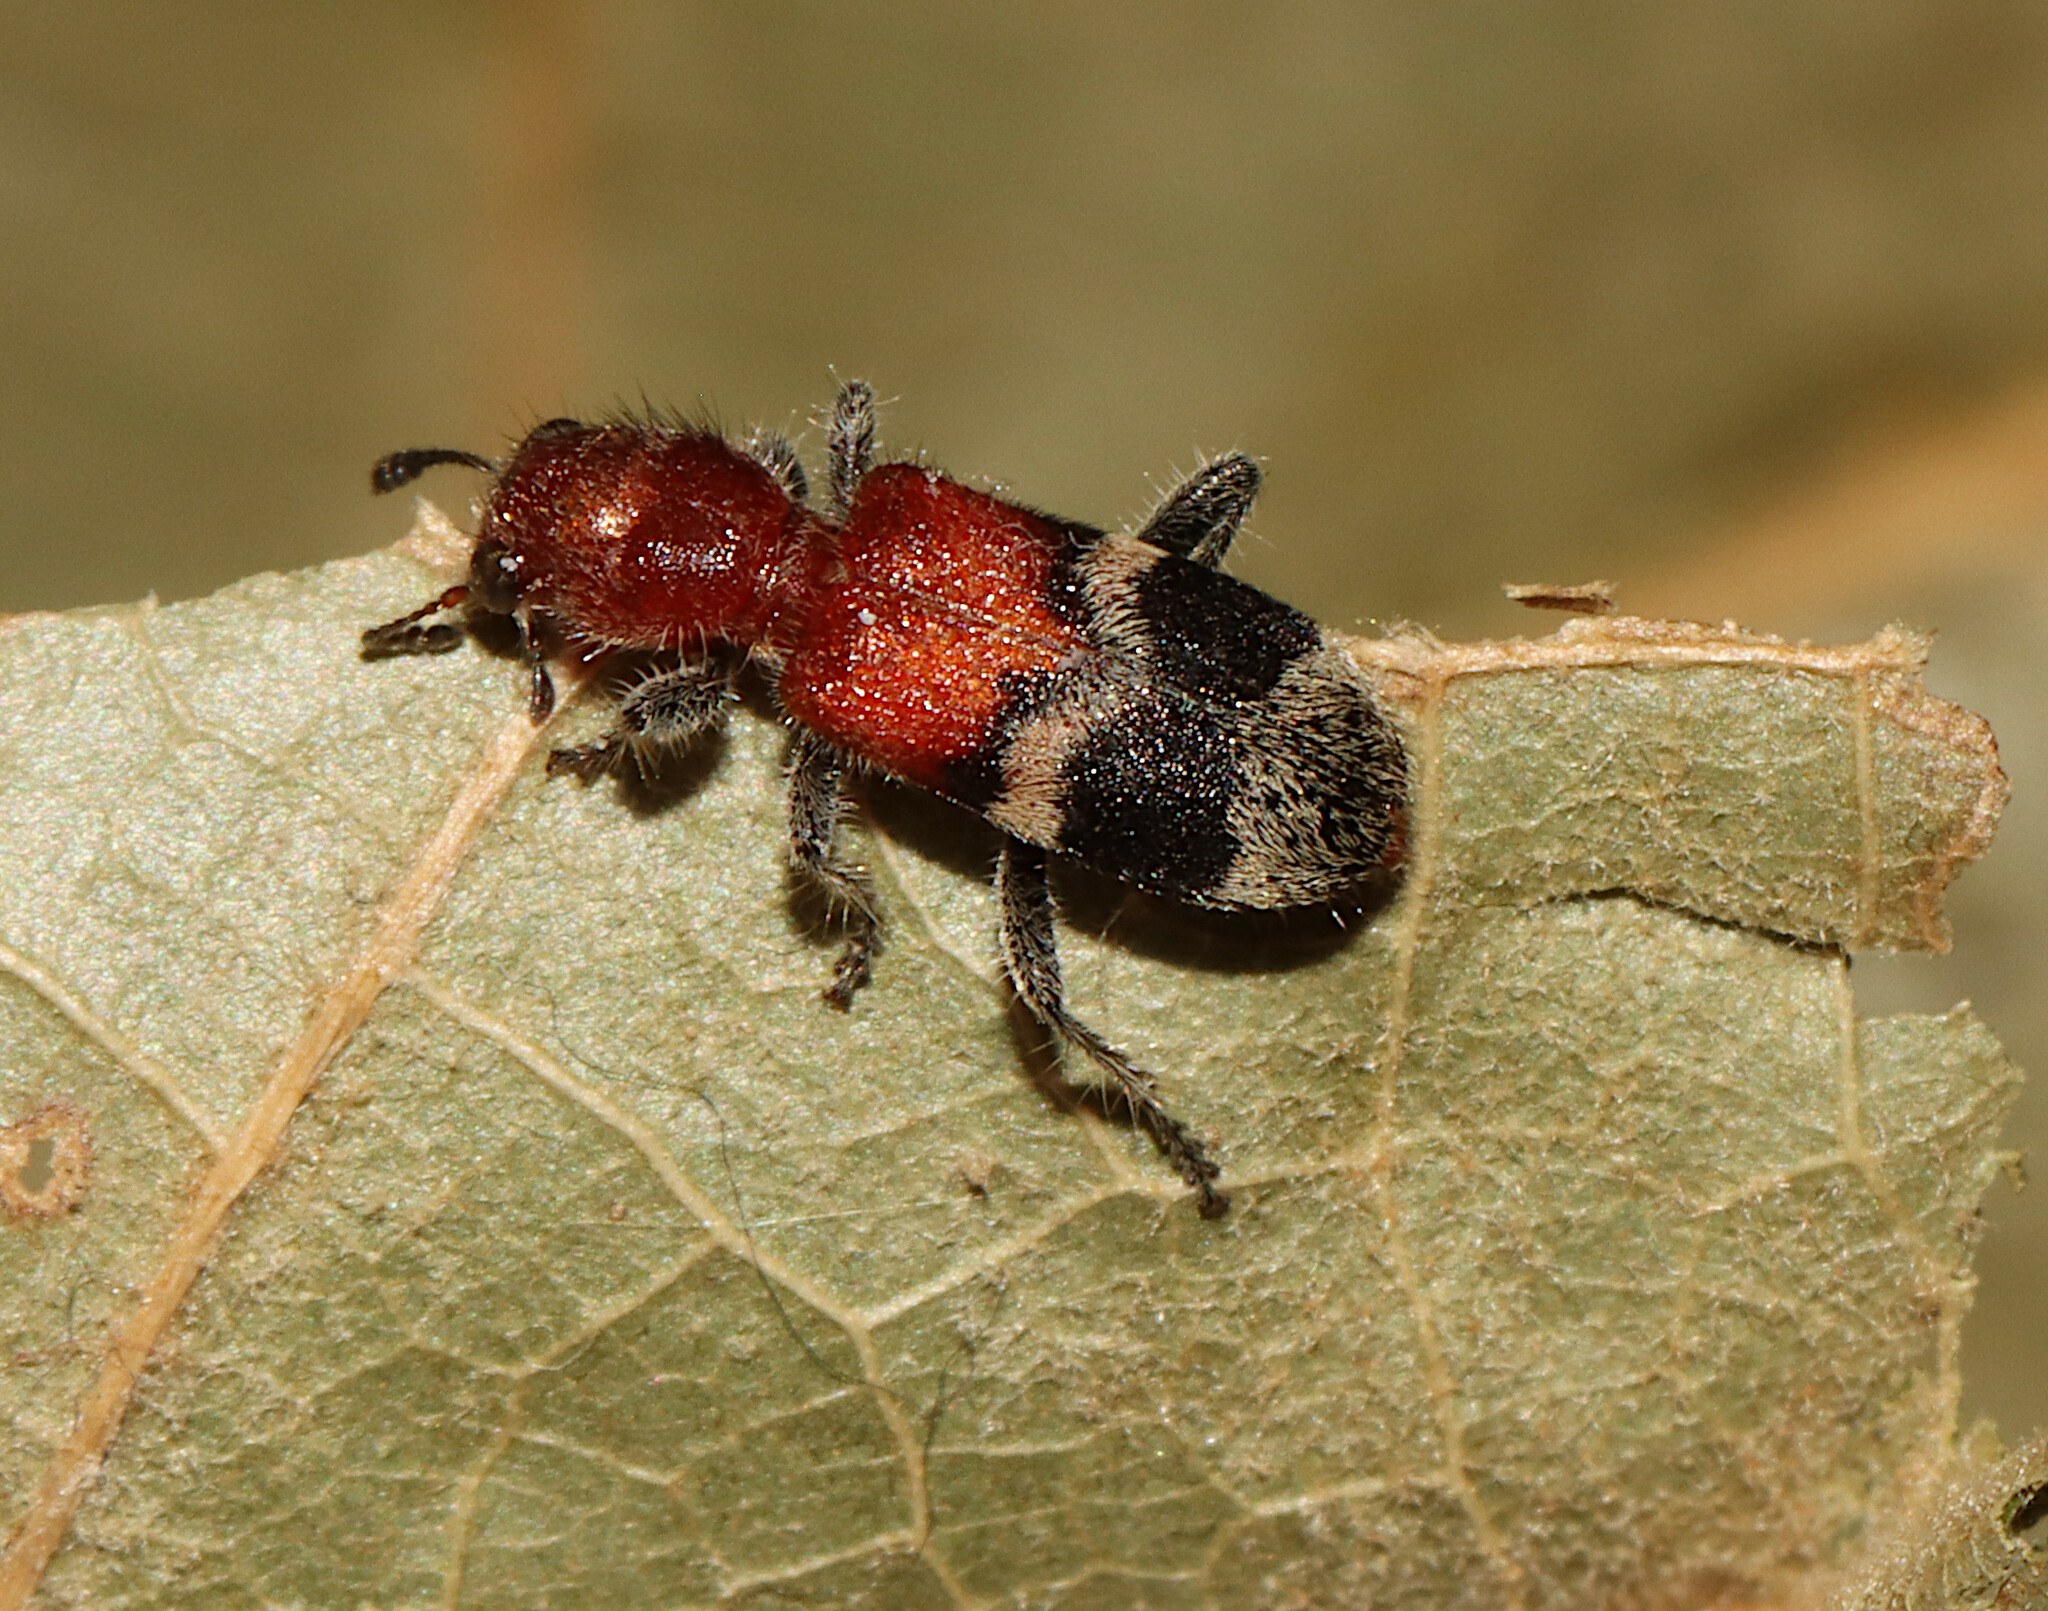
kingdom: Animalia
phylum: Arthropoda
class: Insecta
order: Coleoptera
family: Cleridae
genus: Enoclerus
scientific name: Enoclerus nigripes
